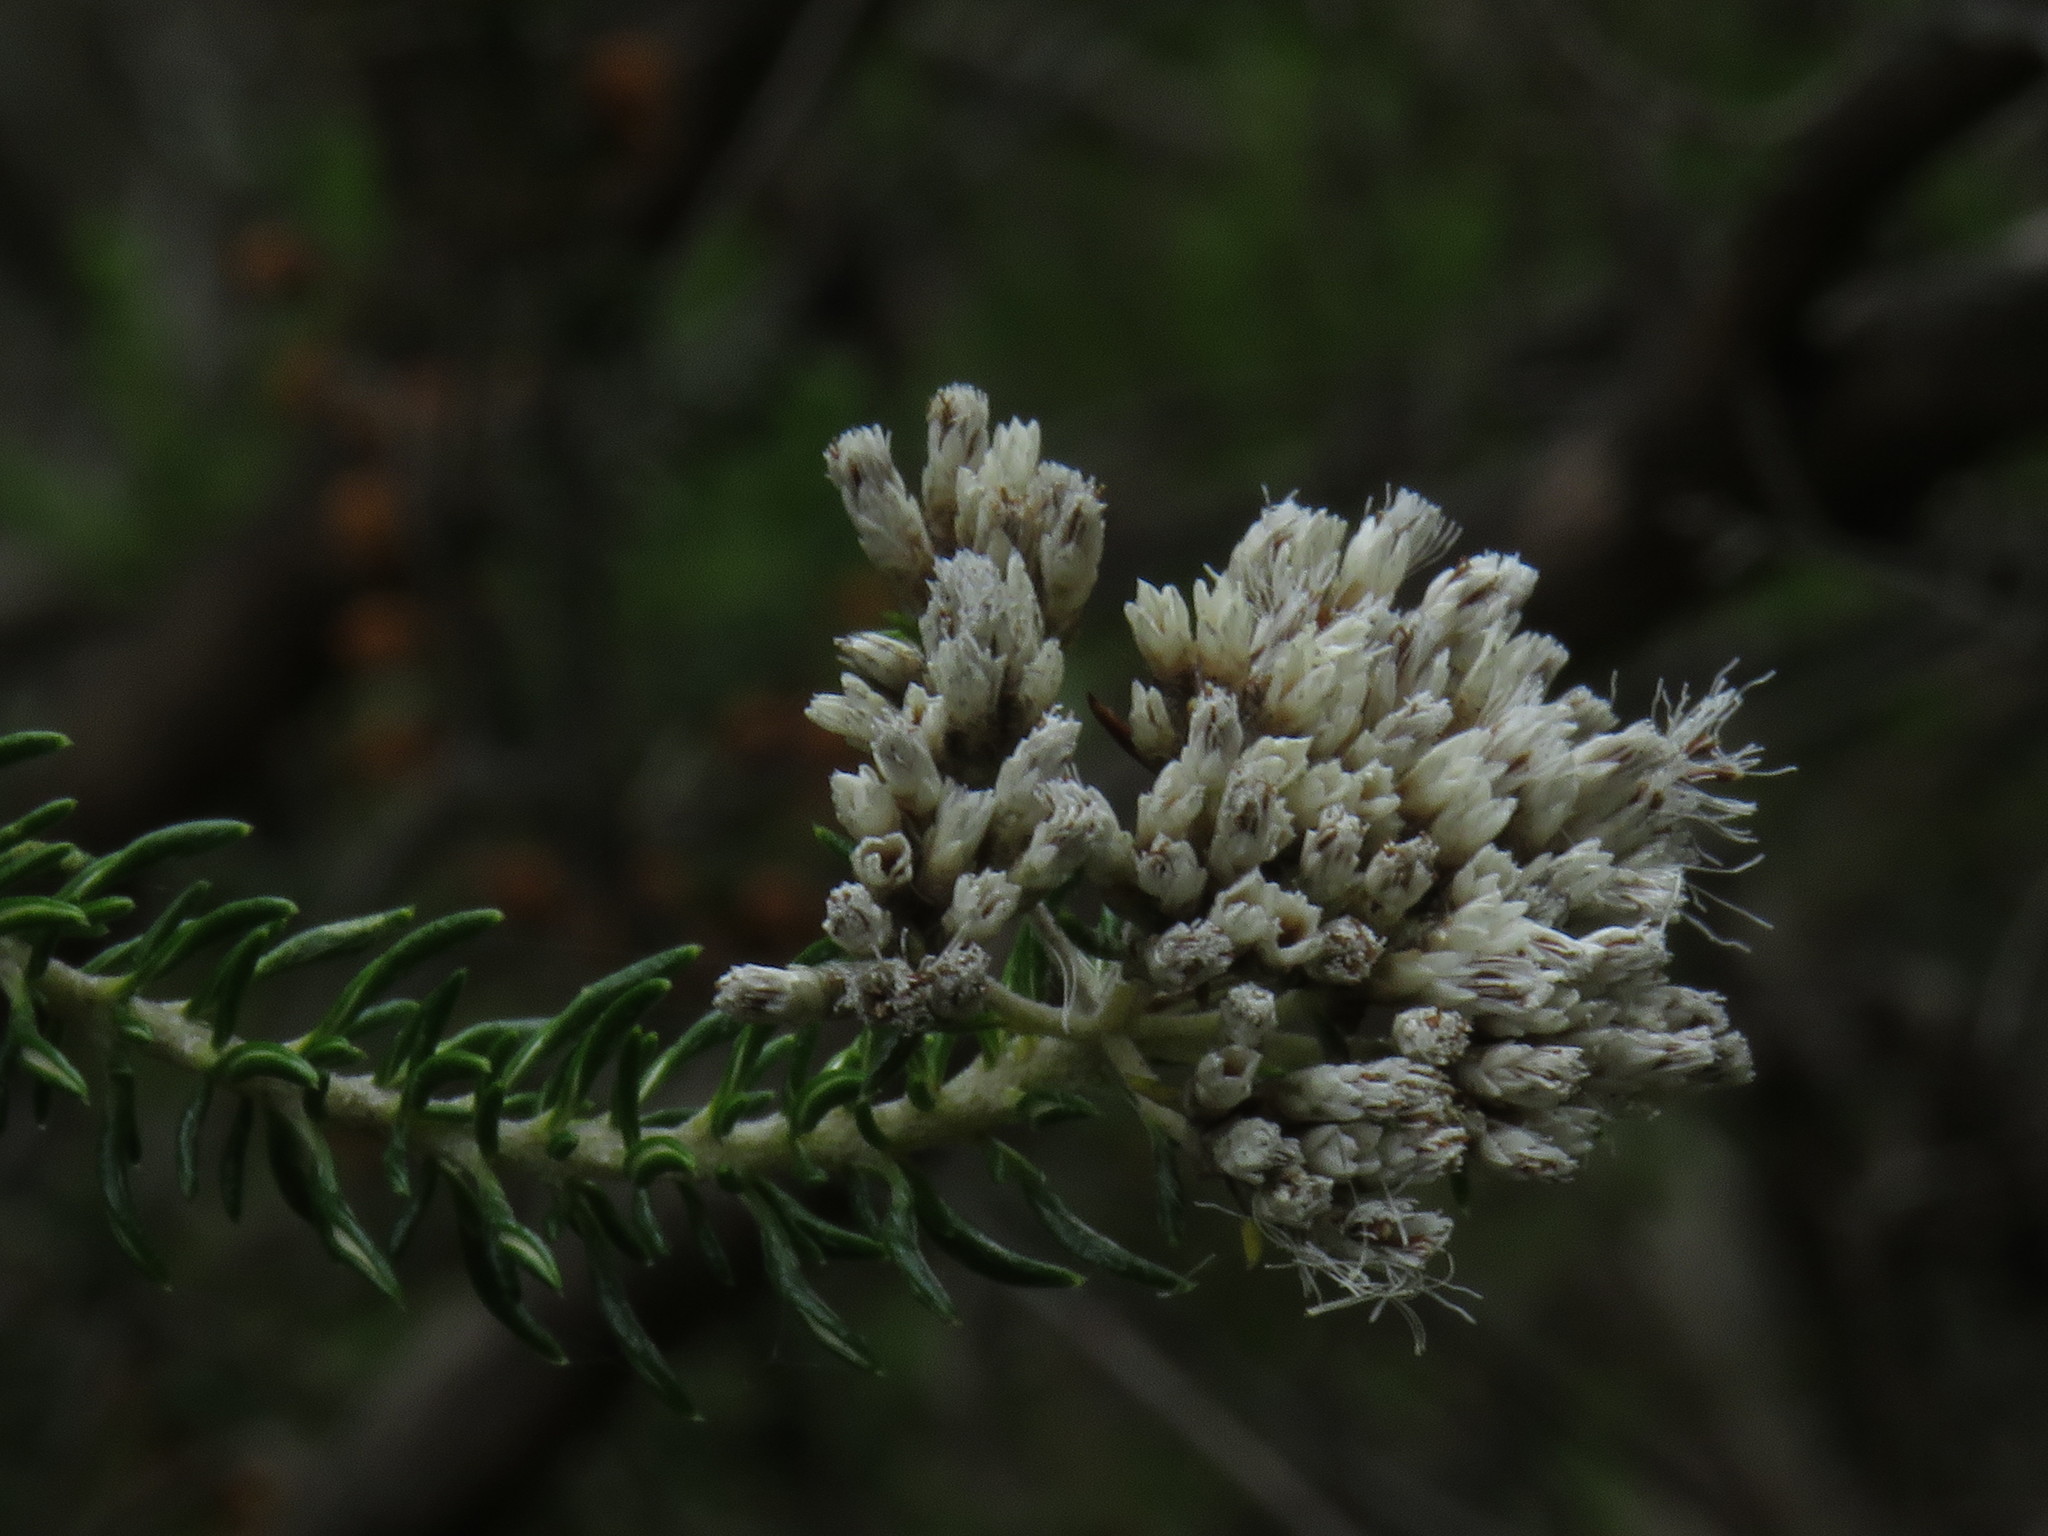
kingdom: Plantae
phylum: Tracheophyta
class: Magnoliopsida
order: Asterales
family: Asteraceae
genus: Metalasia
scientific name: Metalasia muricata
